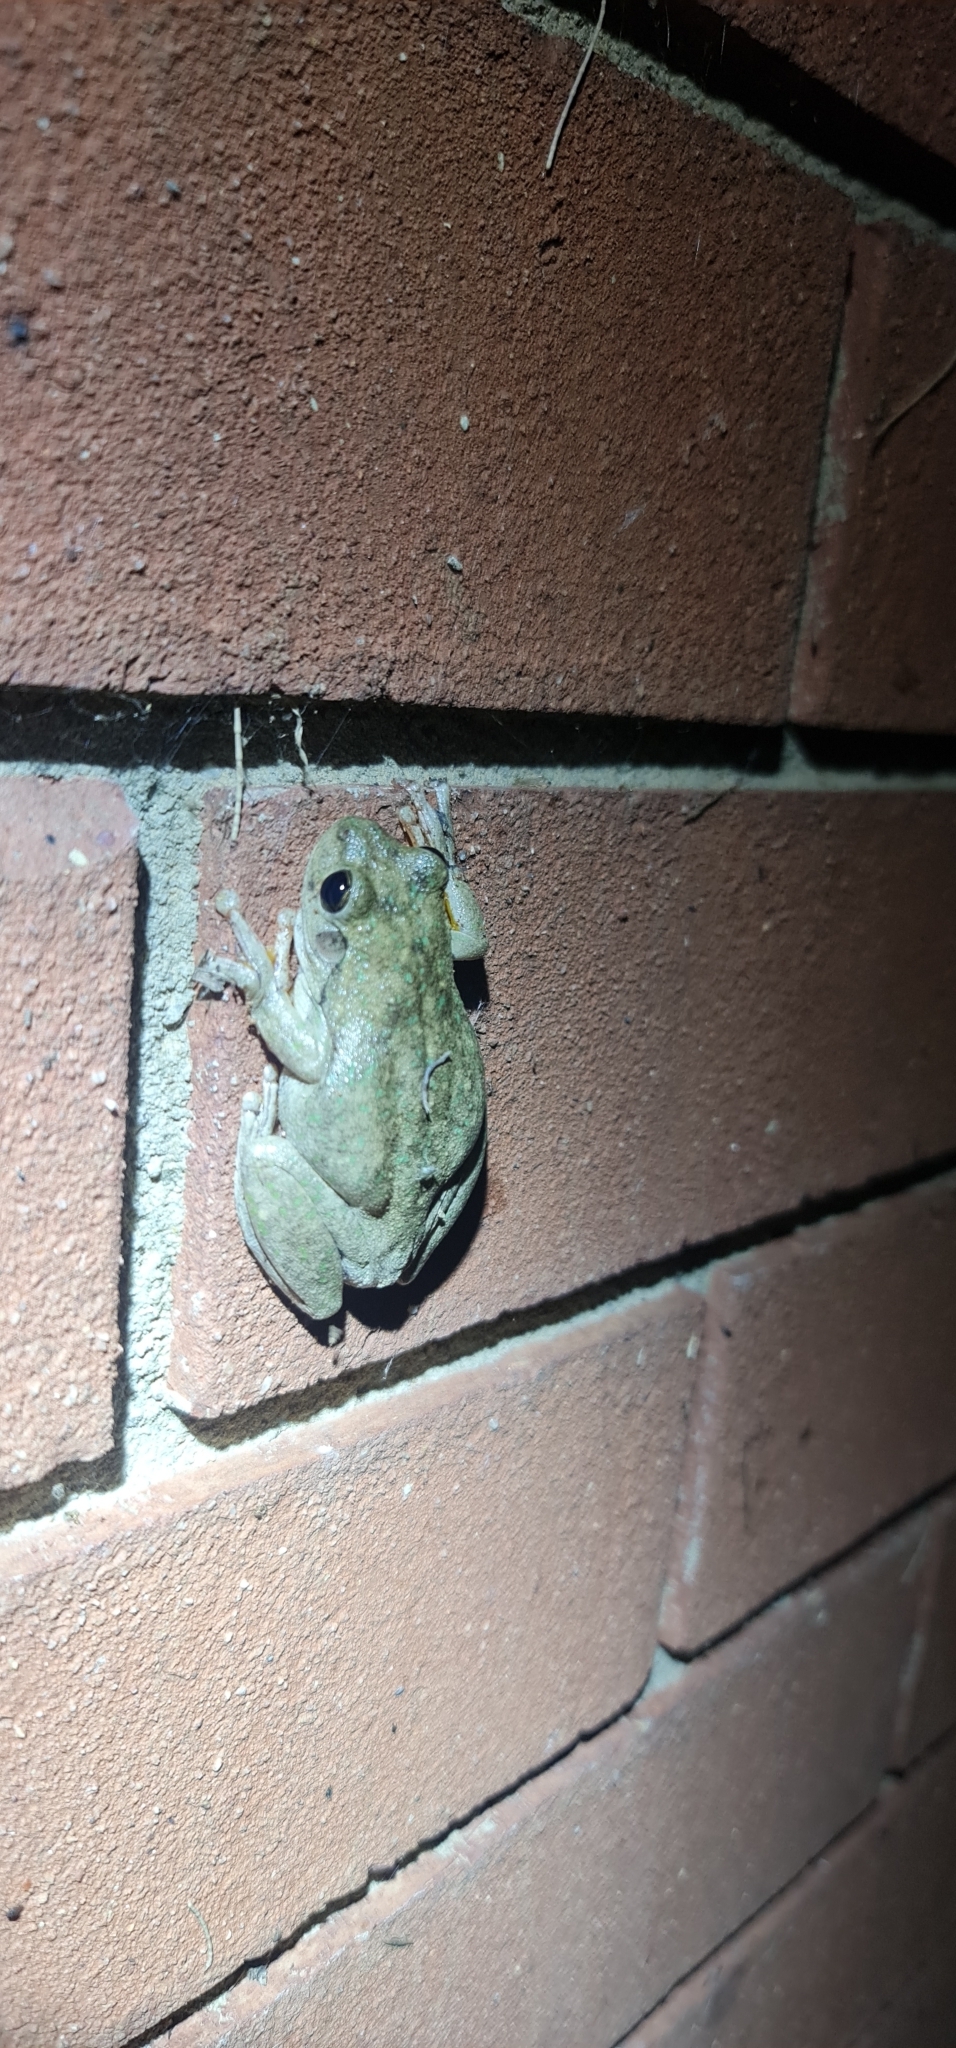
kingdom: Animalia
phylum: Chordata
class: Amphibia
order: Anura
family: Pelodryadidae
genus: Litoria
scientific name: Litoria peronii
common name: Emerald spotted treefrog
